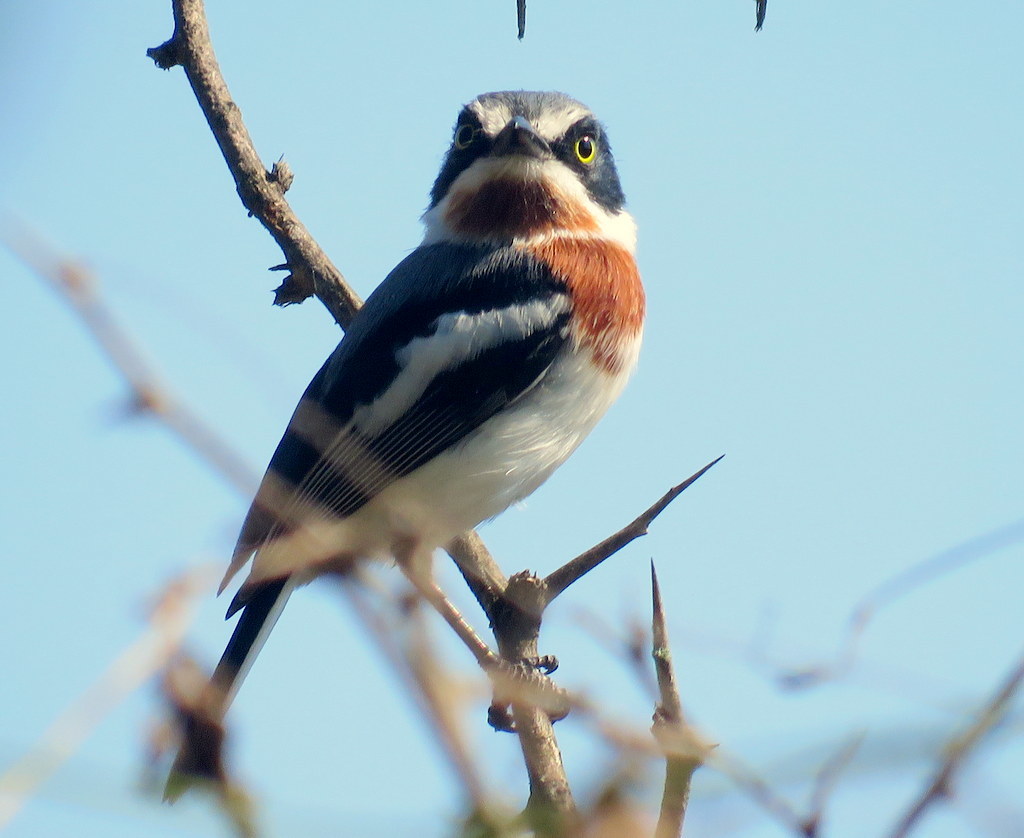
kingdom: Animalia
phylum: Chordata
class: Aves
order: Passeriformes
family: Platysteiridae
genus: Batis
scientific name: Batis molitor
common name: Chinspot batis
